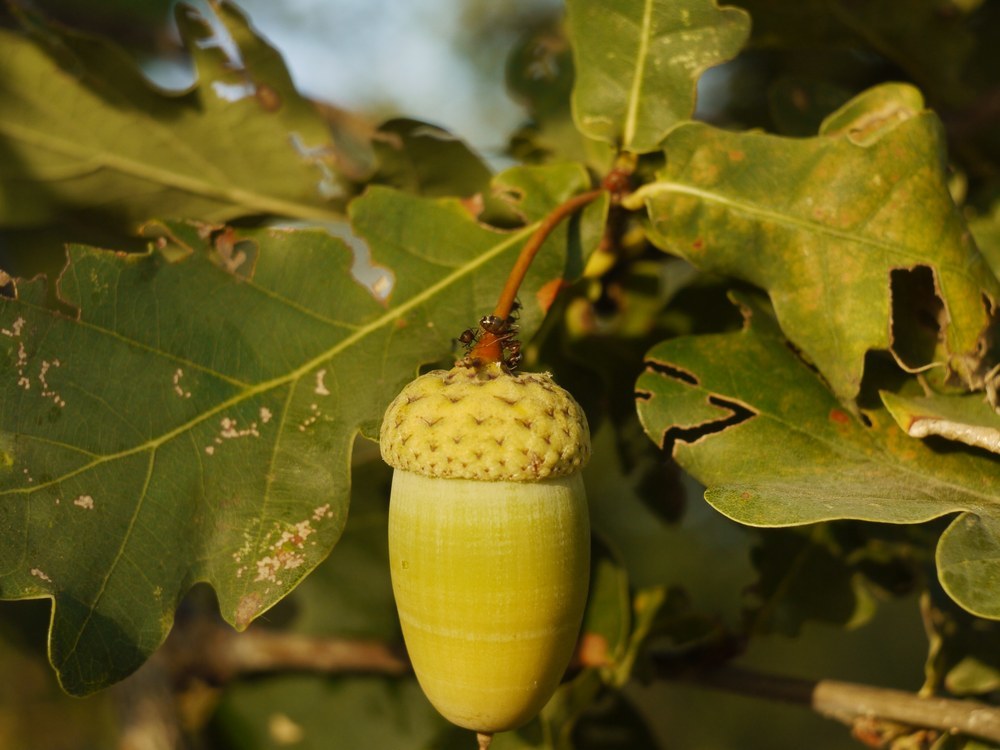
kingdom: Plantae
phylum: Tracheophyta
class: Magnoliopsida
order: Fagales
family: Fagaceae
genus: Quercus
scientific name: Quercus robur
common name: Pedunculate oak
